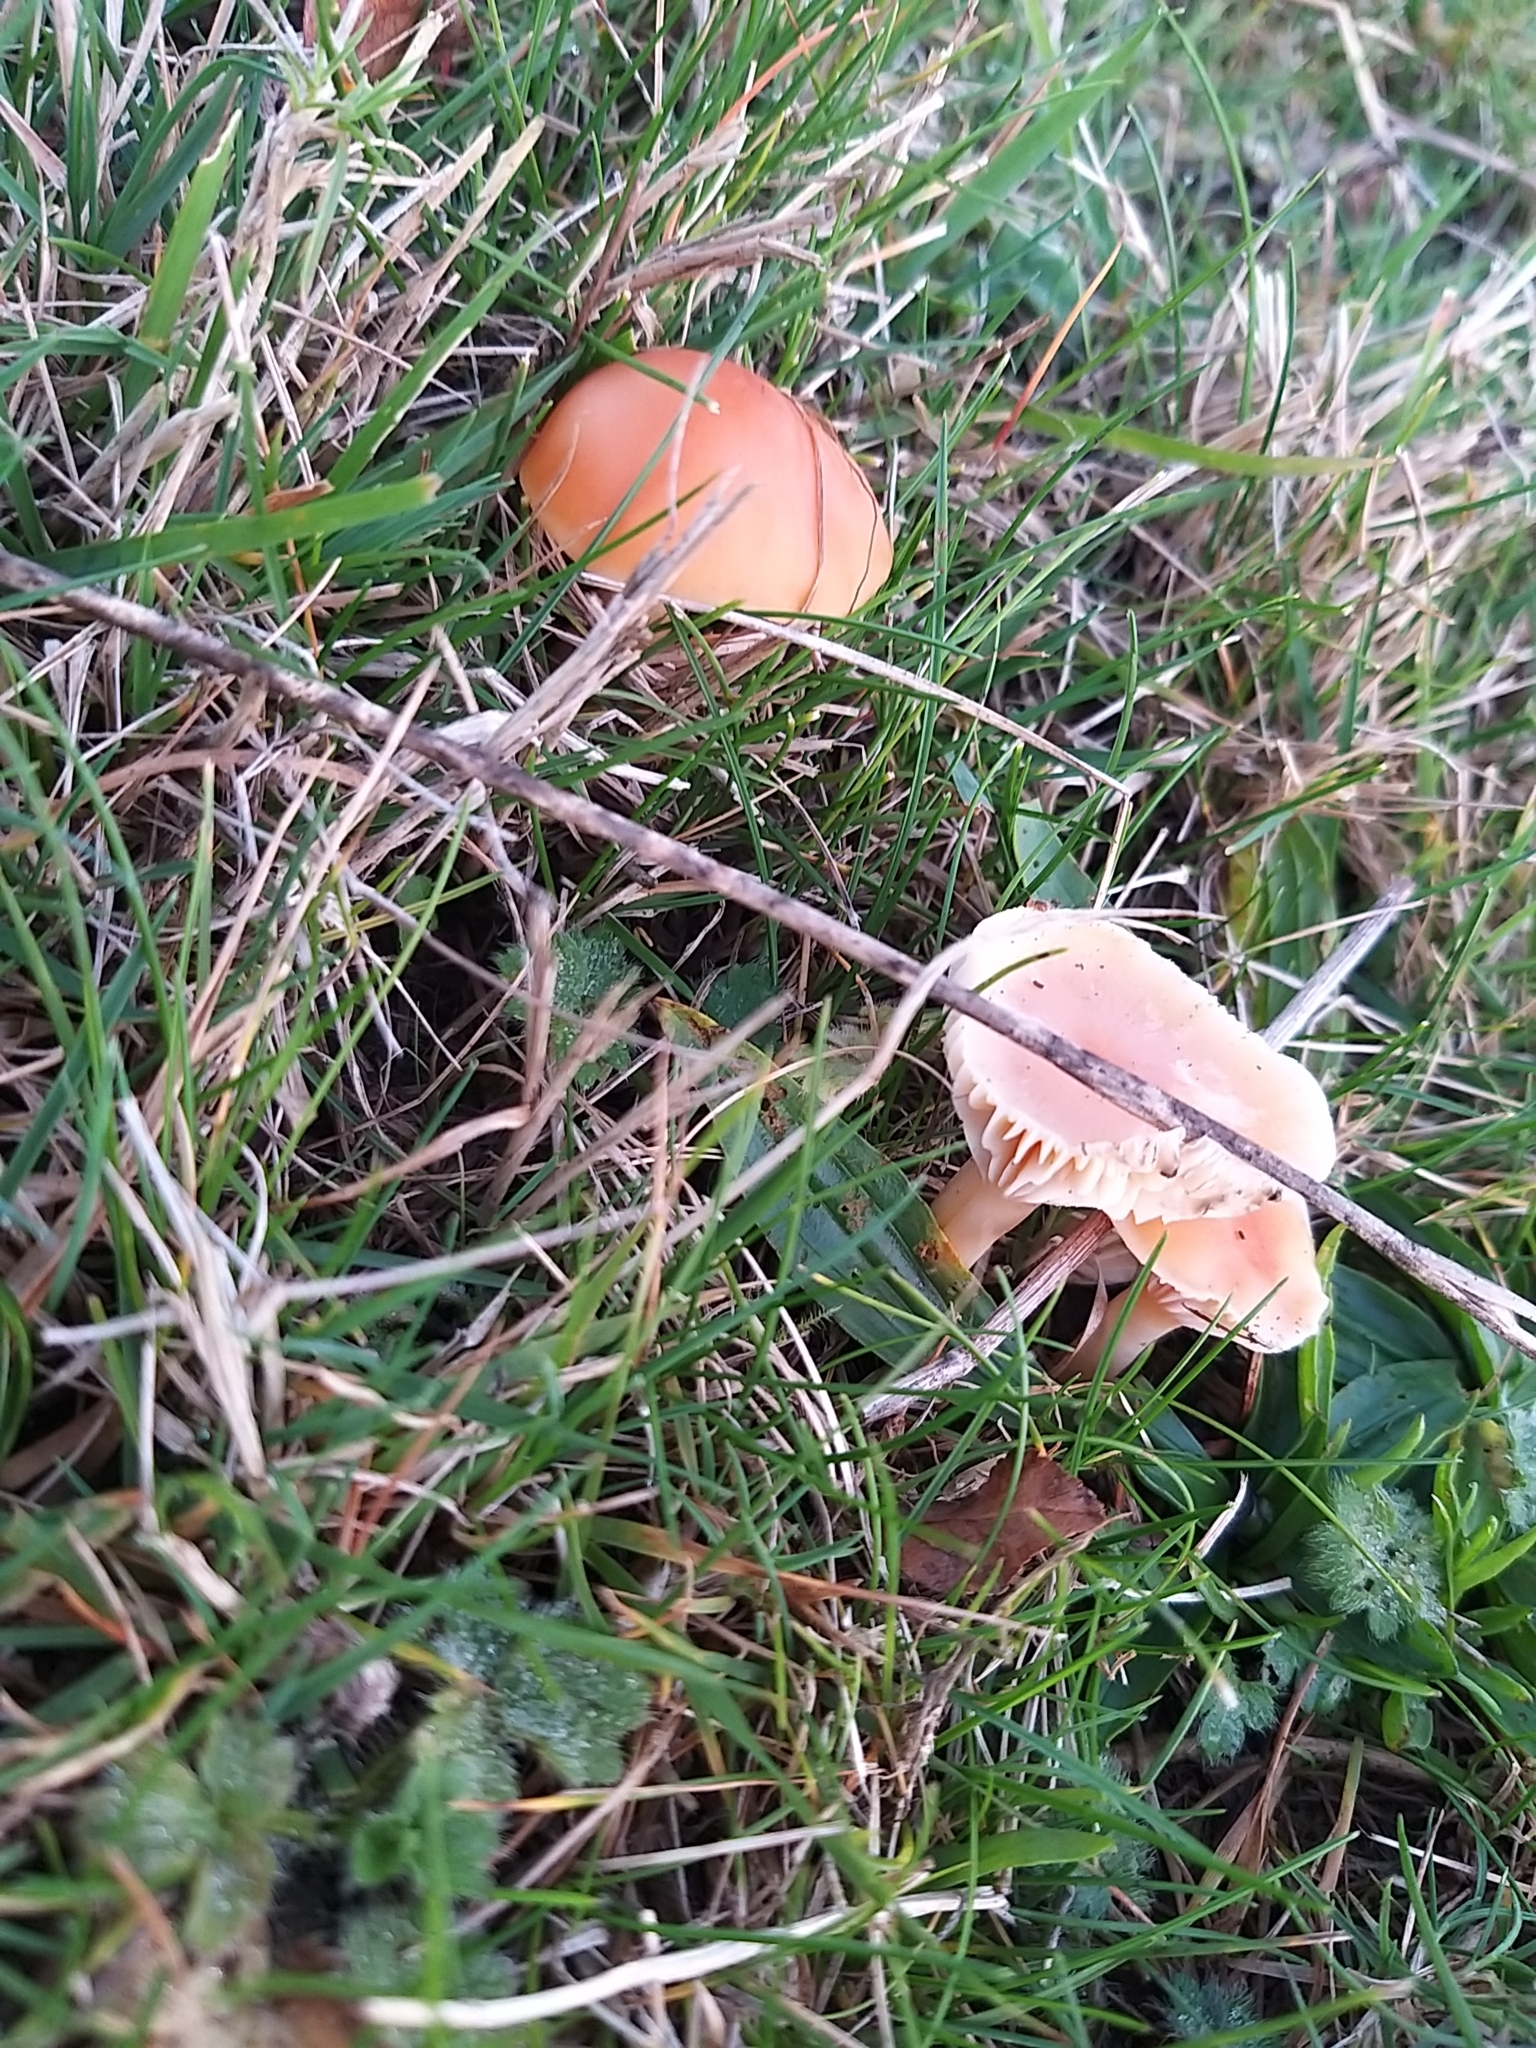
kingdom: Fungi
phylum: Basidiomycota
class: Agaricomycetes
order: Agaricales
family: Hygrophoraceae
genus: Cuphophyllus
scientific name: Cuphophyllus pratensis
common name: Meadow waxcap
